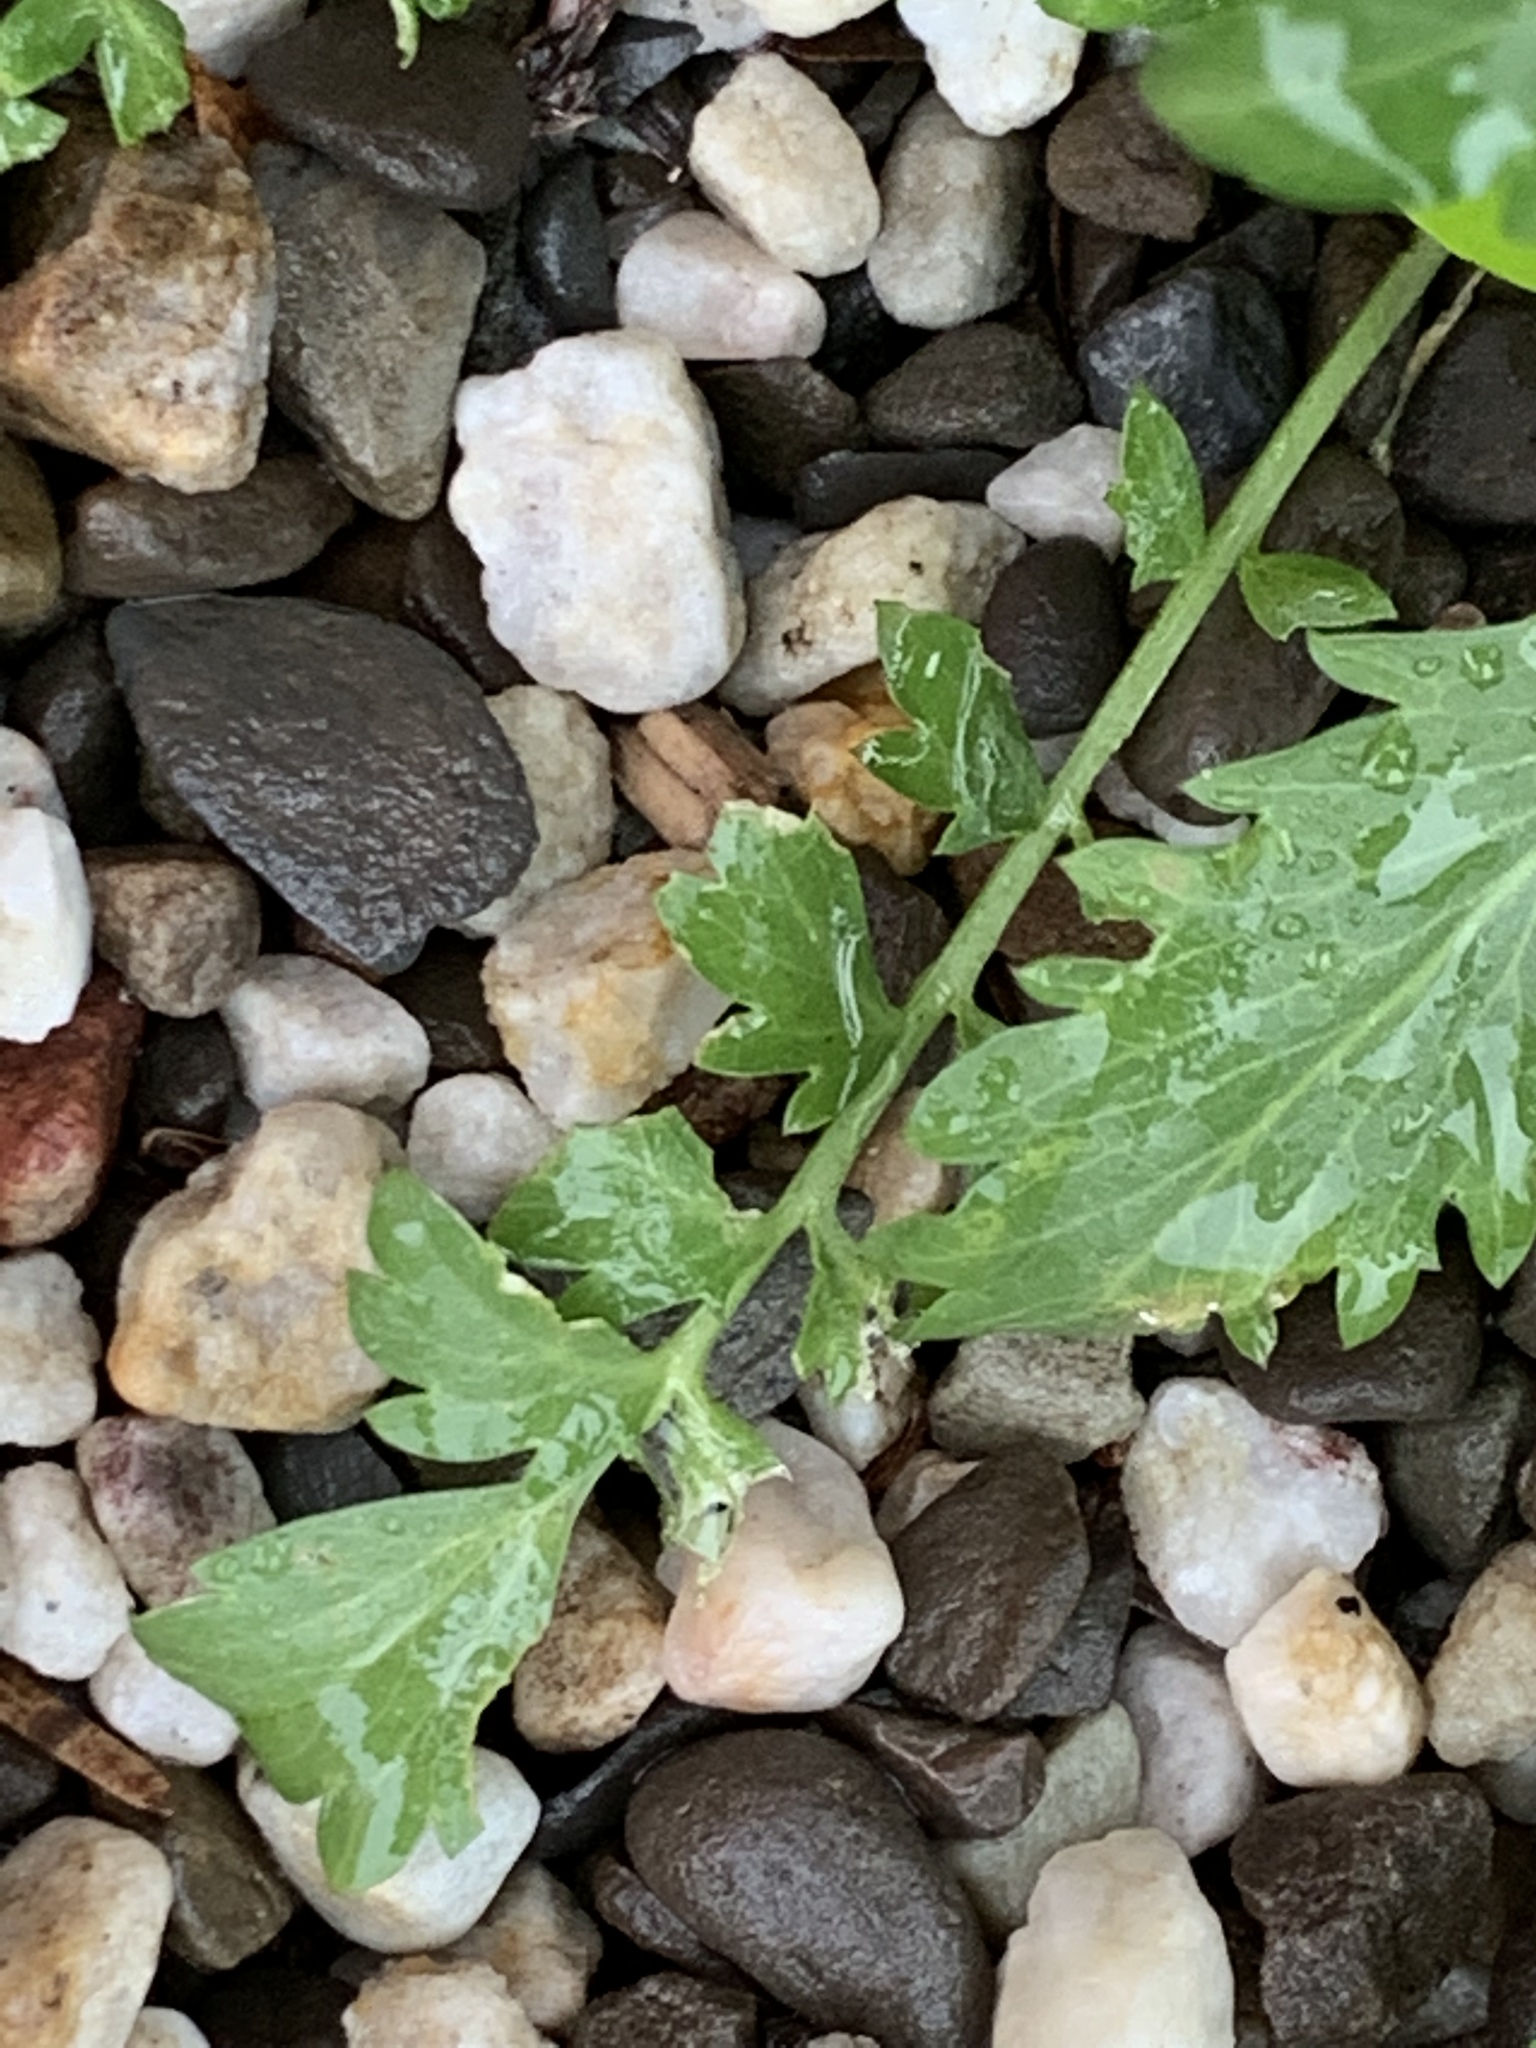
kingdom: Plantae
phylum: Tracheophyta
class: Magnoliopsida
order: Brassicales
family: Brassicaceae
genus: Lepidium
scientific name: Lepidium virginicum
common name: Least pepperwort
